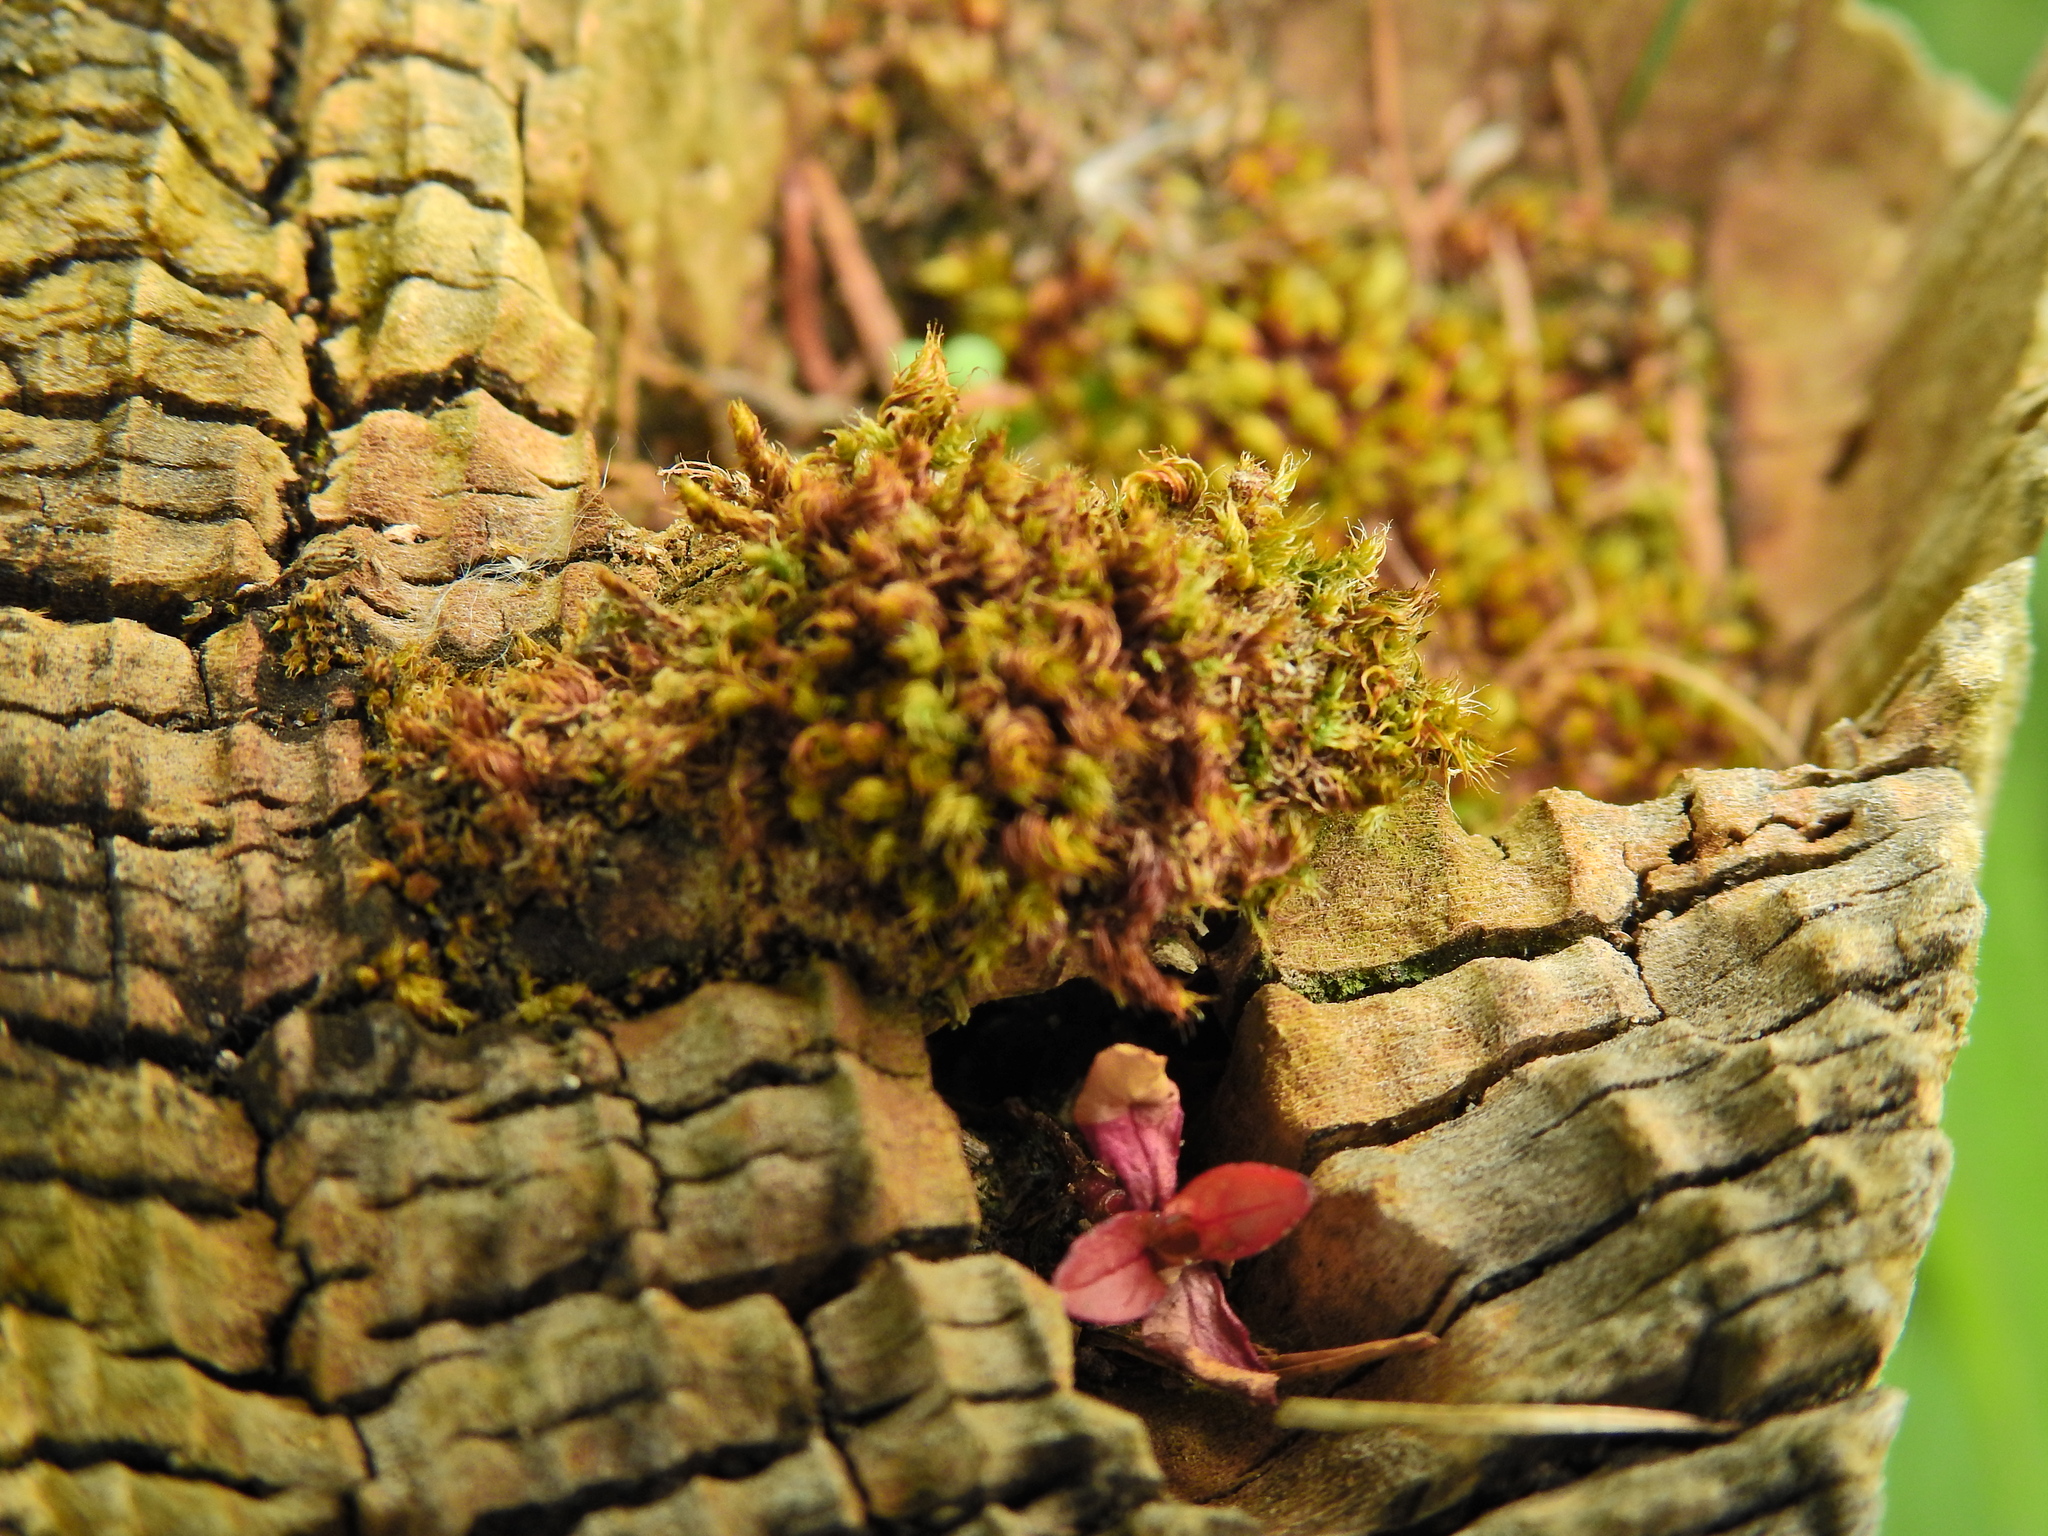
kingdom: Plantae
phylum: Bryophyta
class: Bryopsida
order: Bryales
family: Bryaceae
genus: Rosulabryum
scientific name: Rosulabryum capillare
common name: Capillary thread-moss
